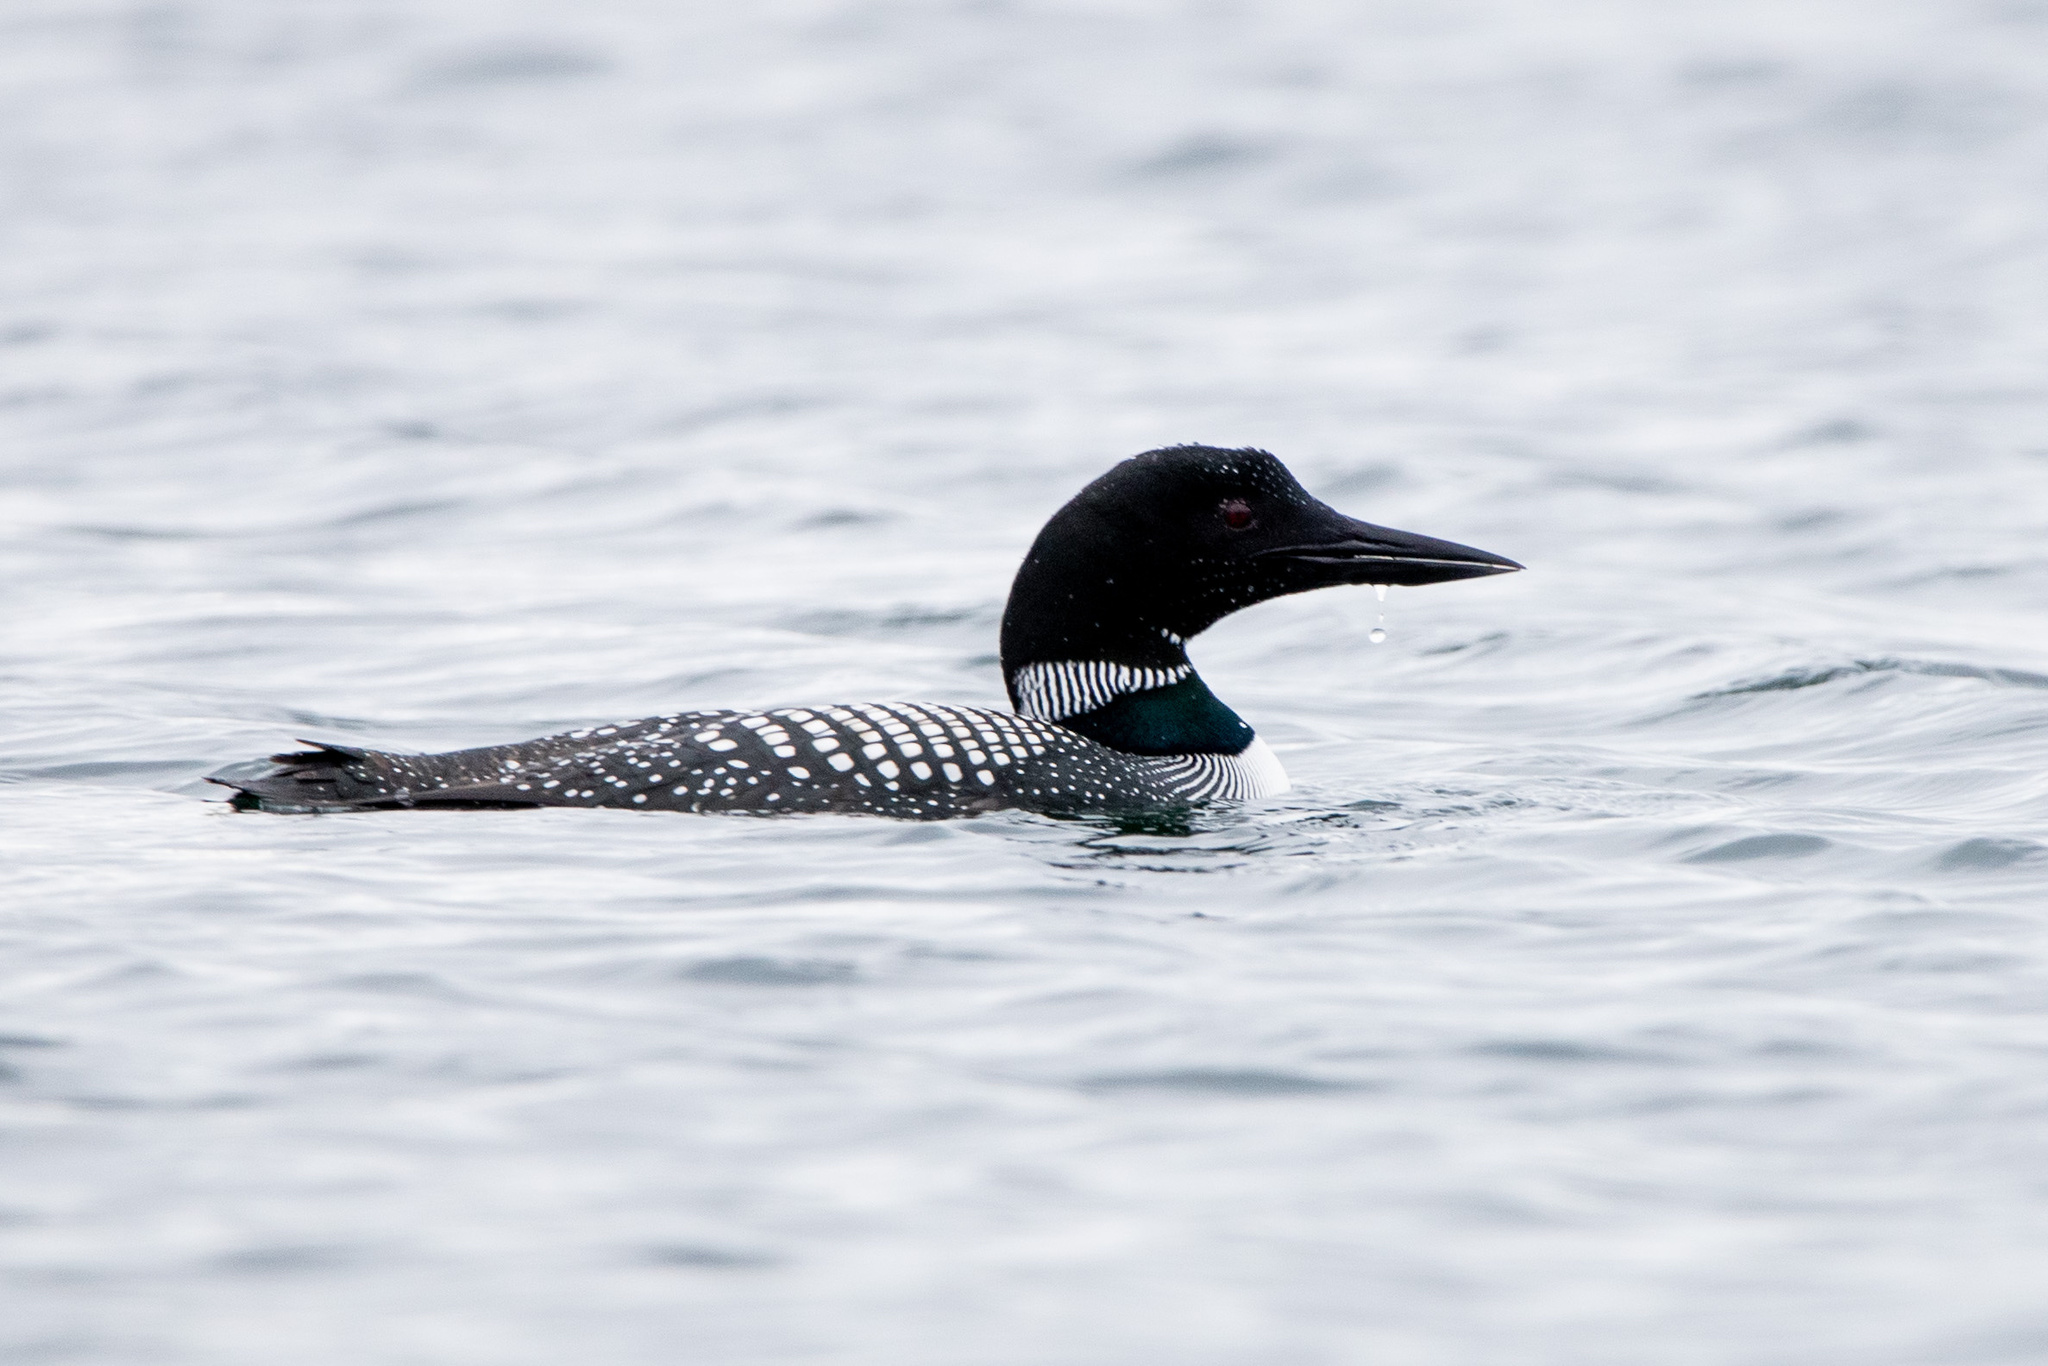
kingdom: Animalia
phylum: Chordata
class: Aves
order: Gaviiformes
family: Gaviidae
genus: Gavia
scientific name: Gavia immer
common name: Common loon
